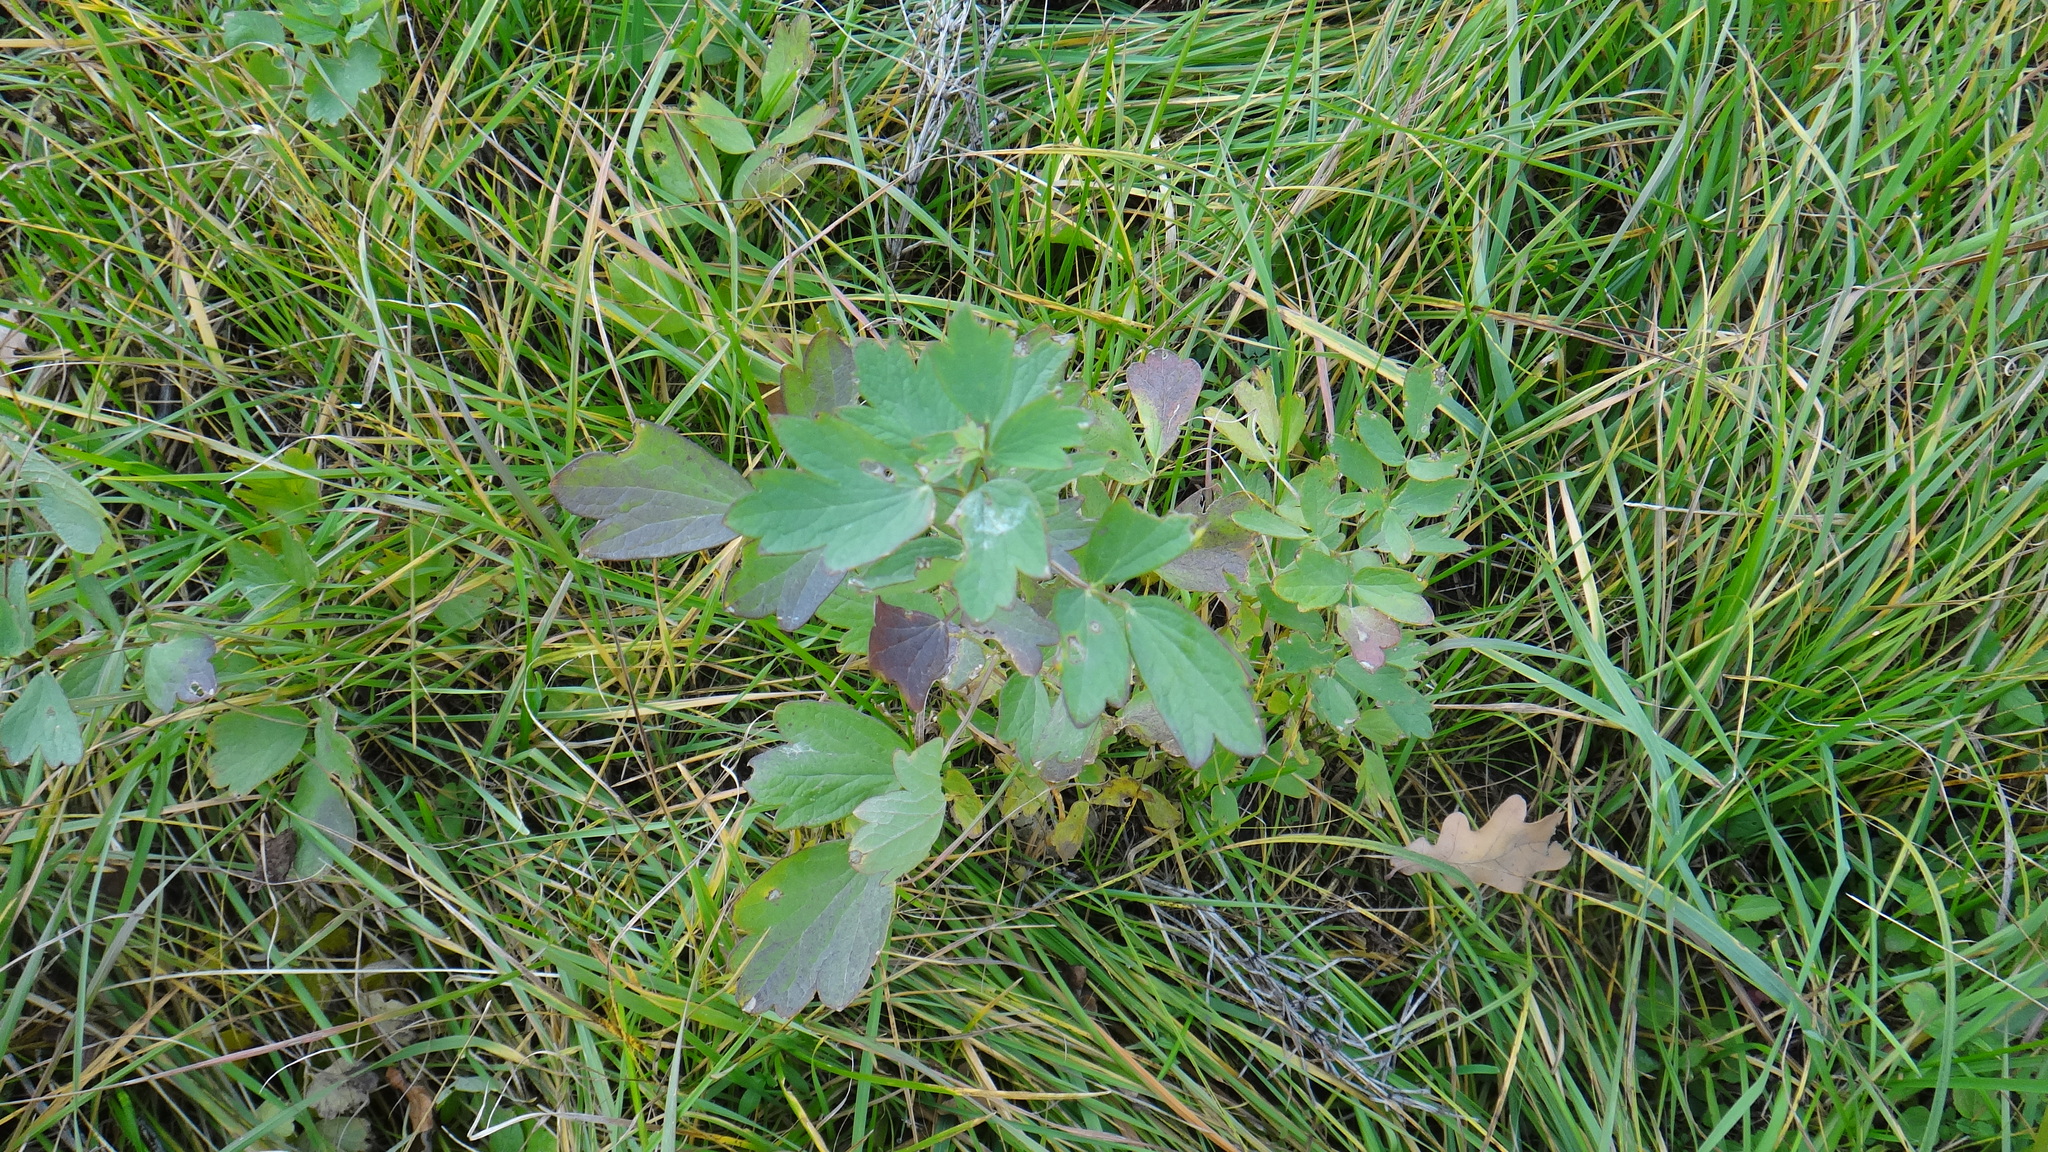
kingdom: Plantae
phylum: Tracheophyta
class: Magnoliopsida
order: Ranunculales
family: Ranunculaceae
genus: Thalictrum
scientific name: Thalictrum simplex
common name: Small meadow-rue
